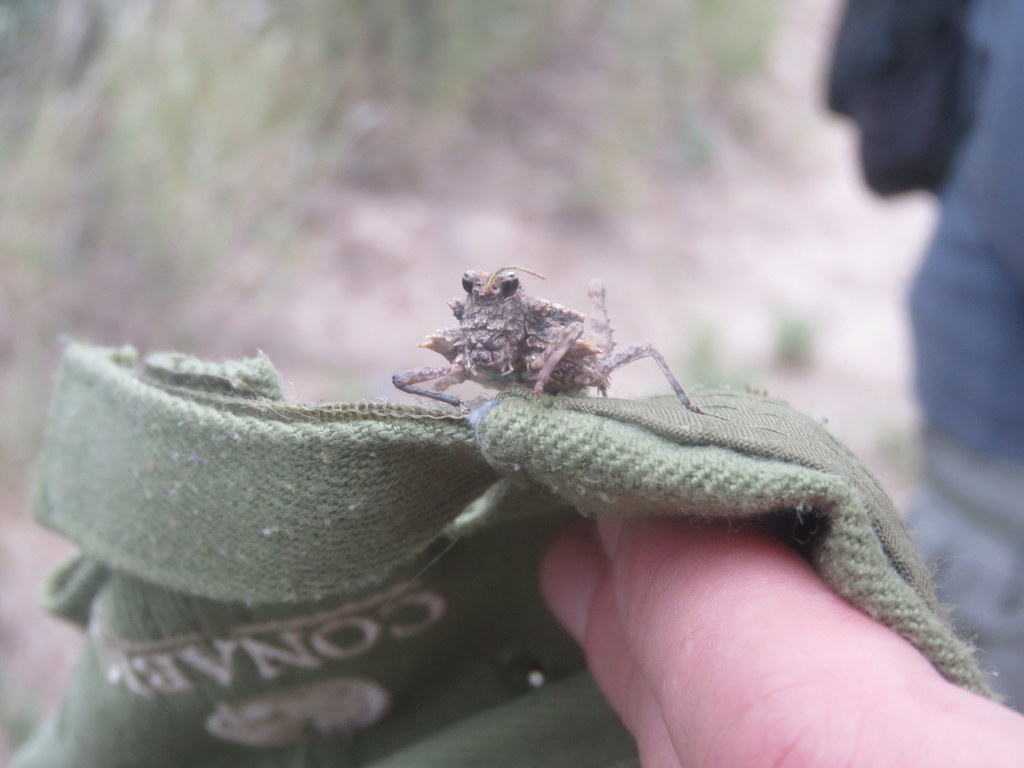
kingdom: Animalia
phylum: Arthropoda
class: Insecta
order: Orthoptera
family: Ommexechidae
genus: Graea
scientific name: Graea horrida
